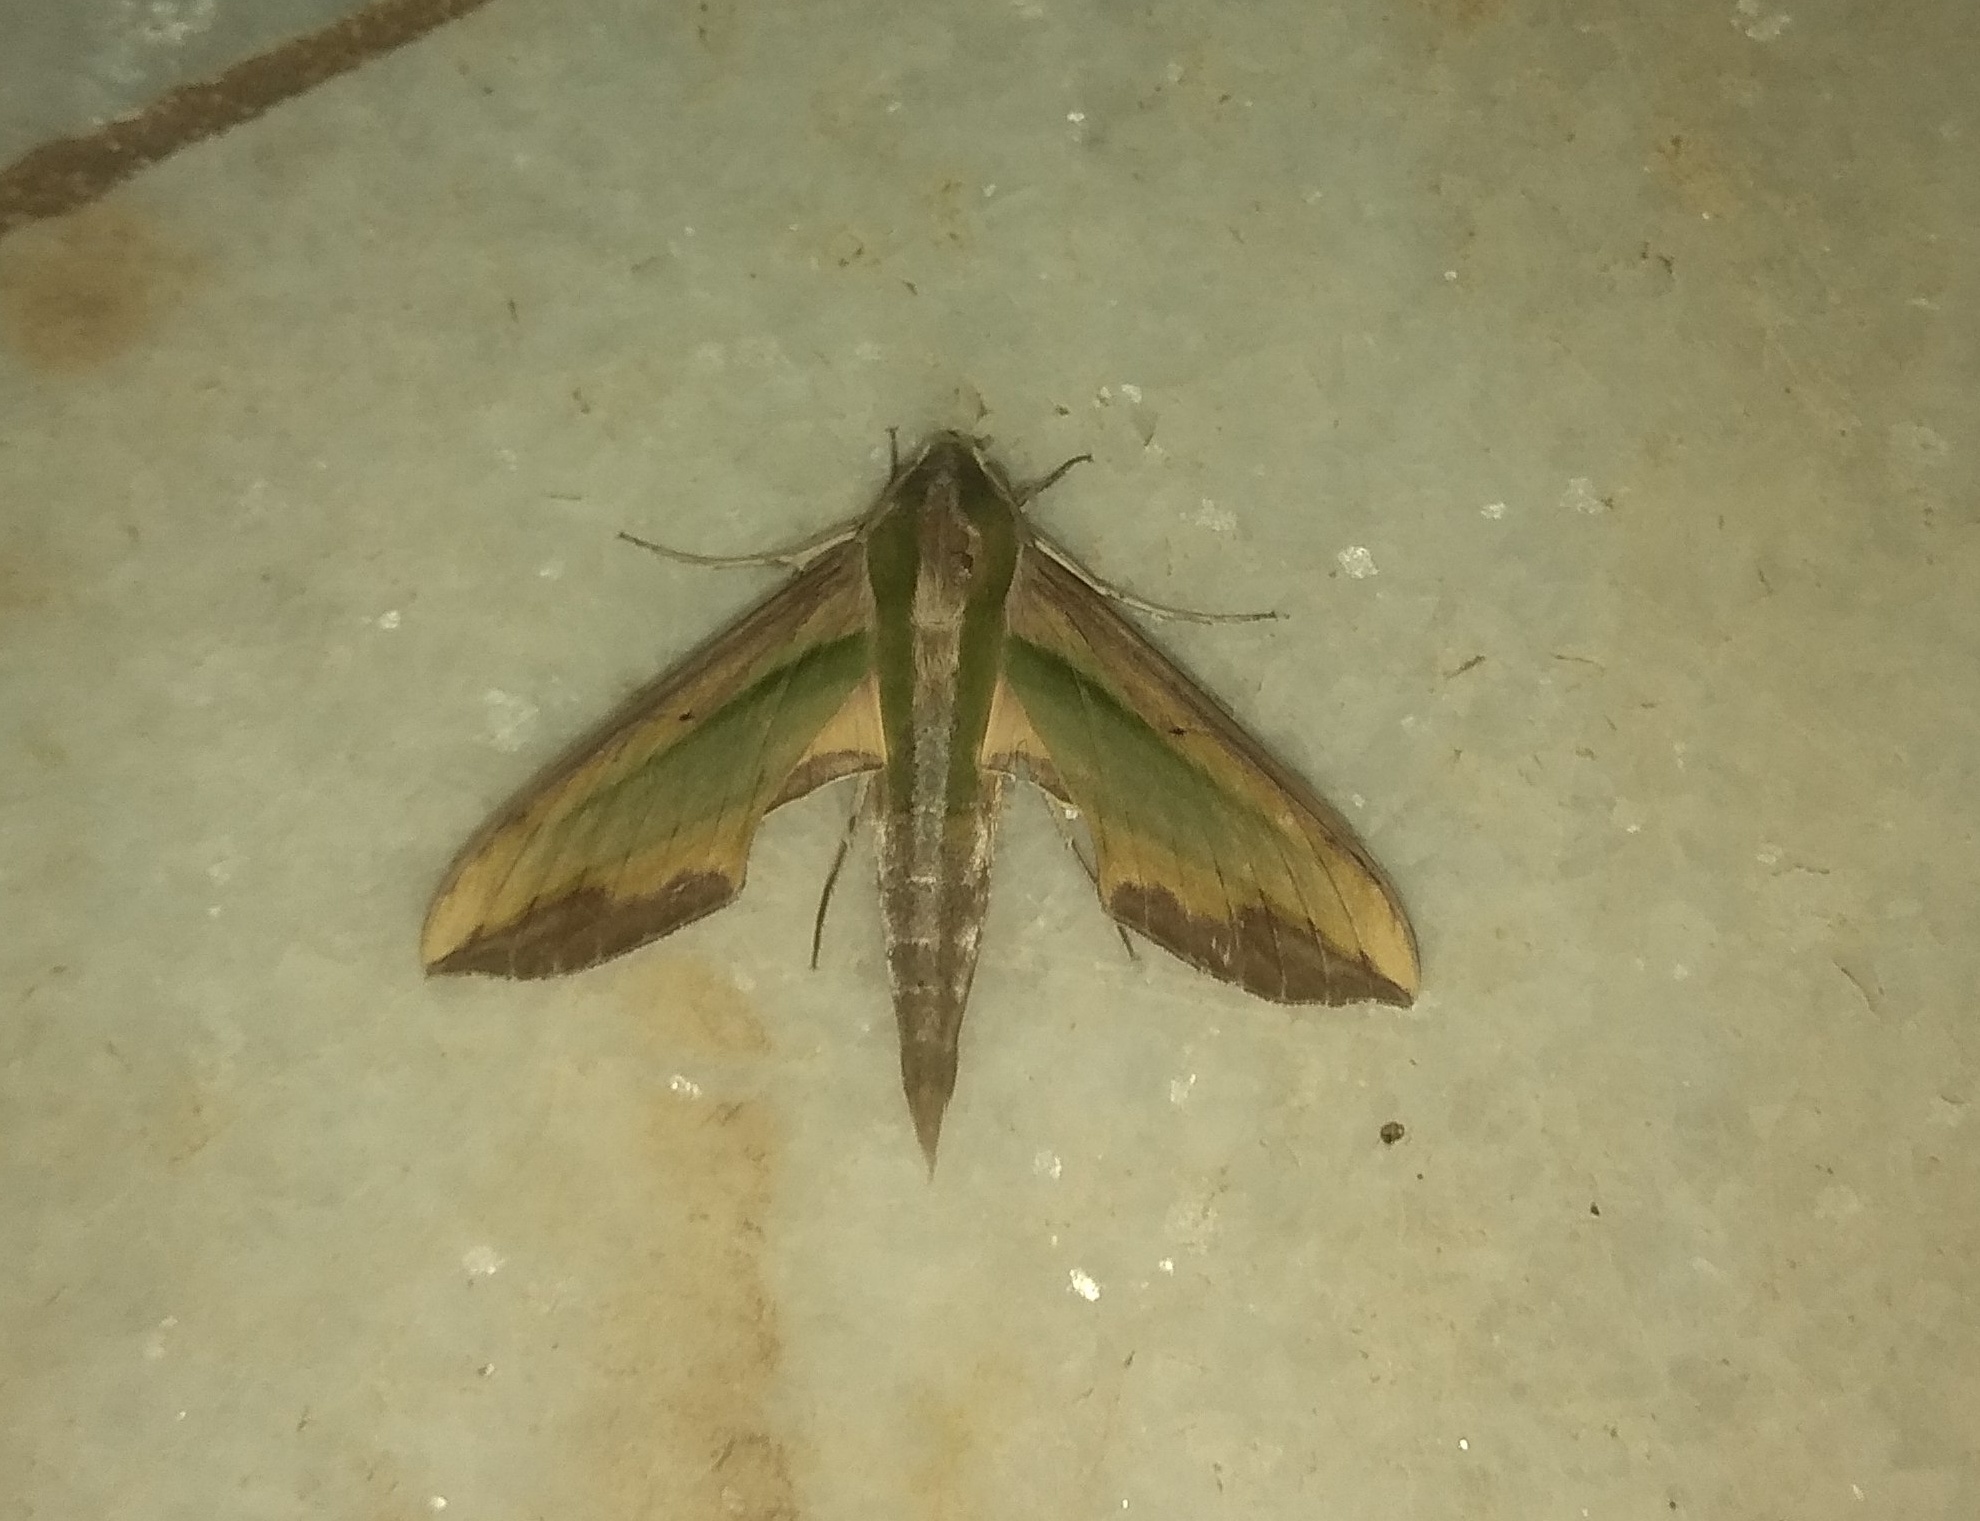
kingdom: Animalia
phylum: Arthropoda
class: Insecta
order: Lepidoptera
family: Sphingidae
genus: Pergesa
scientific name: Pergesa acteus
